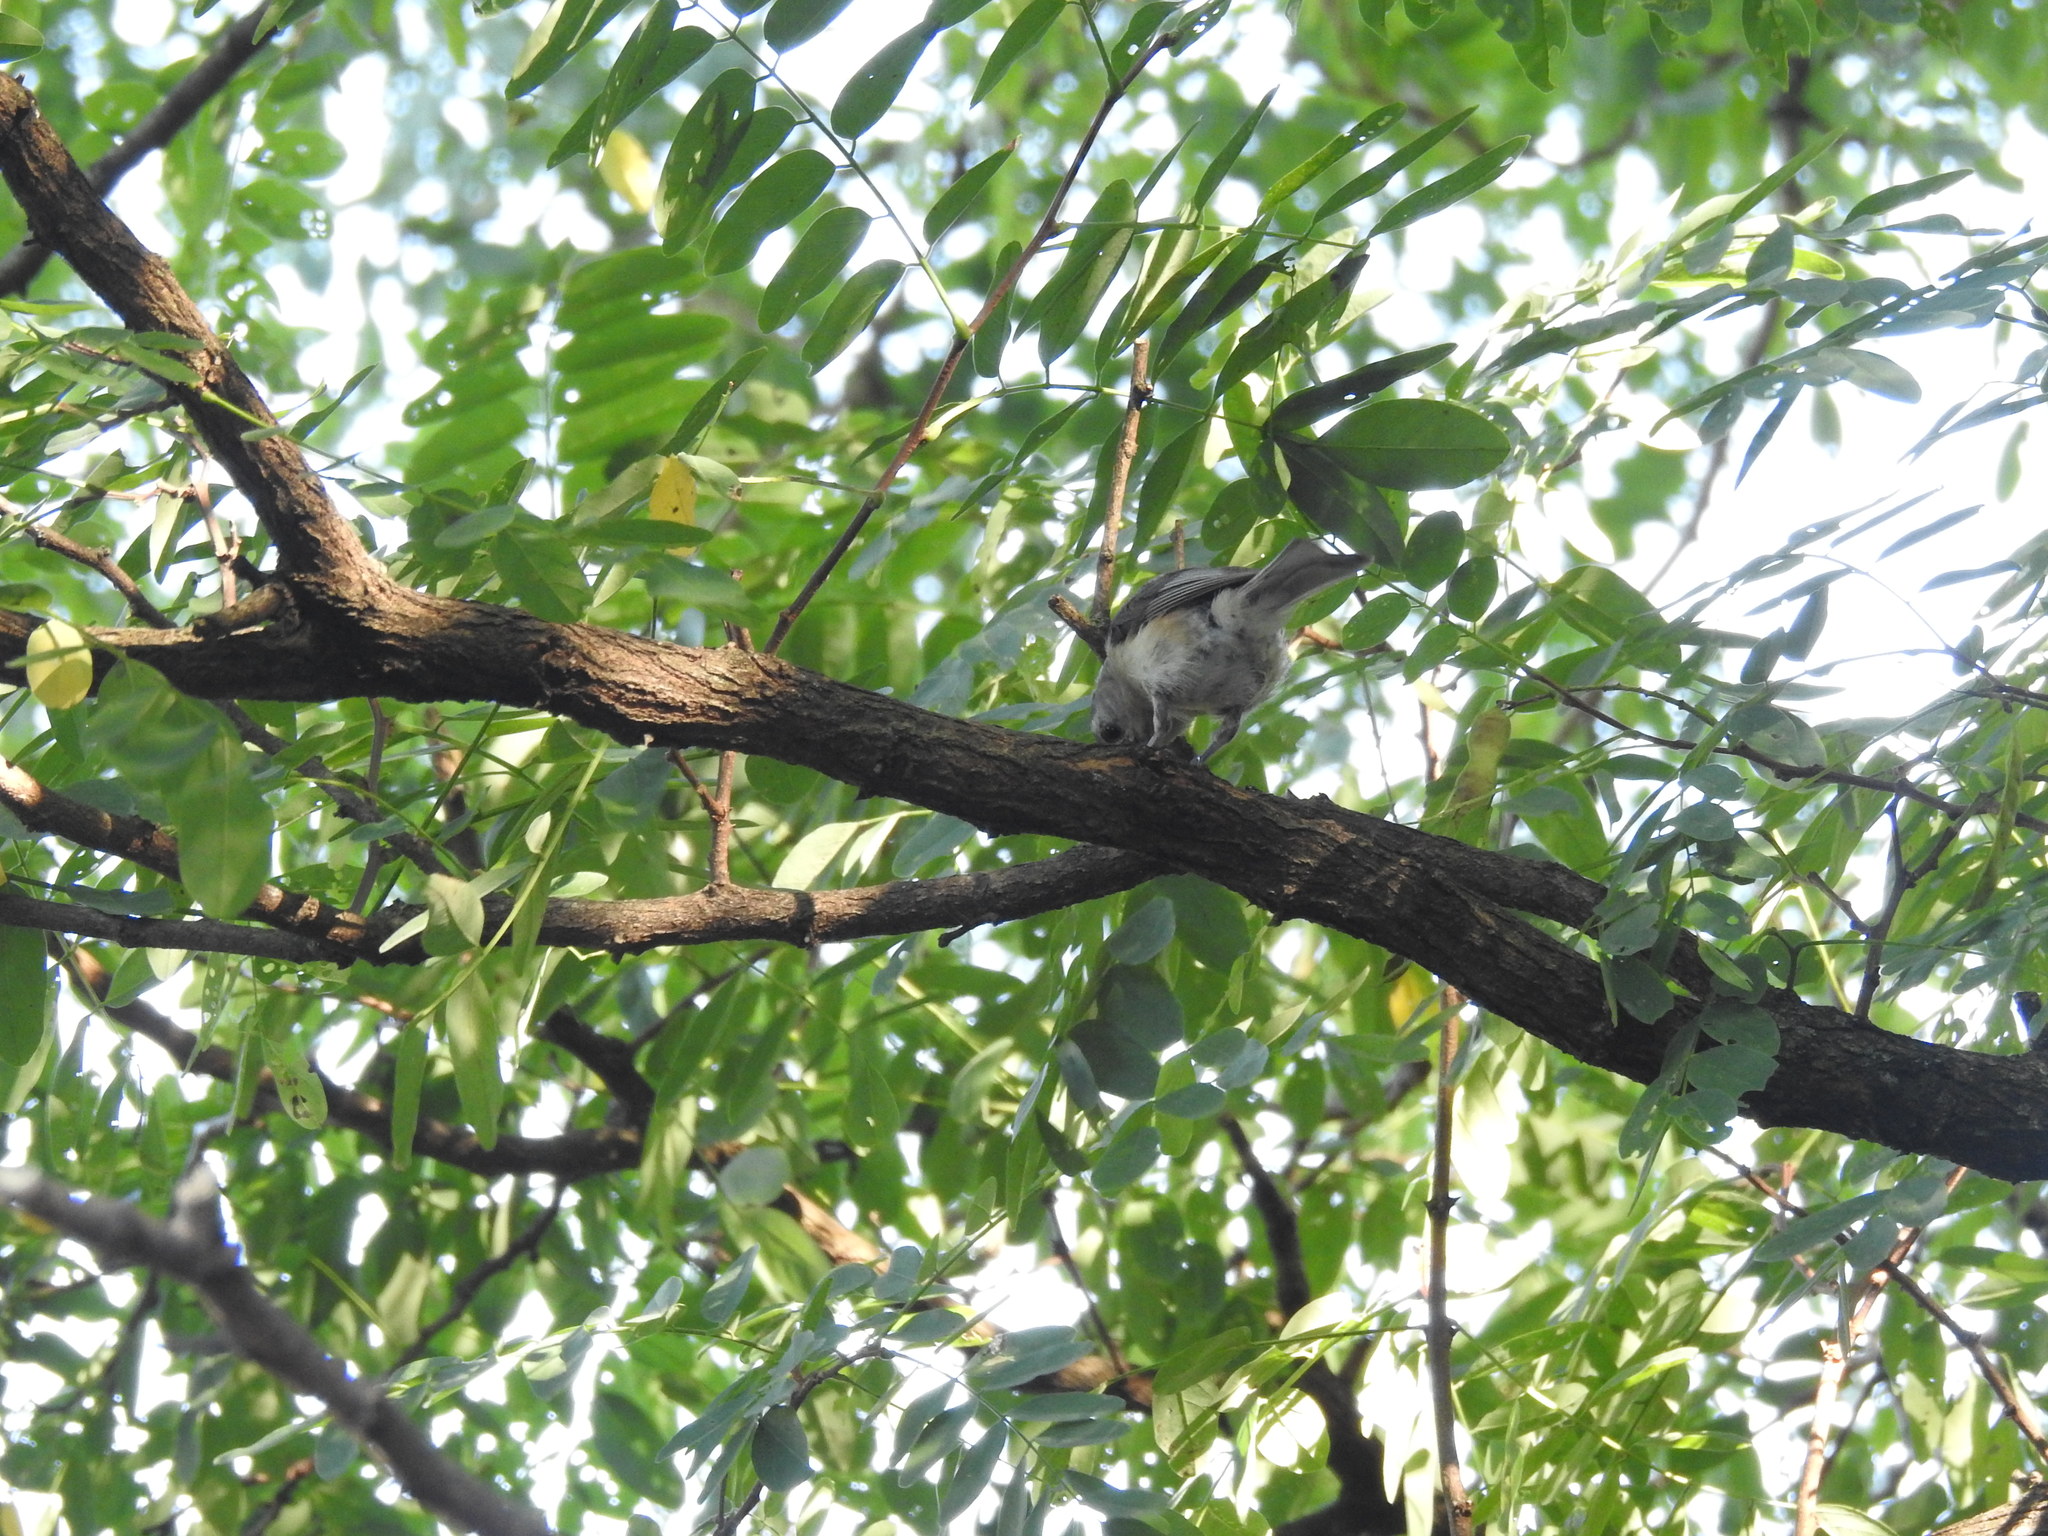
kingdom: Animalia
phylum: Chordata
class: Aves
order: Passeriformes
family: Paridae
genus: Baeolophus
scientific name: Baeolophus bicolor
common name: Tufted titmouse
